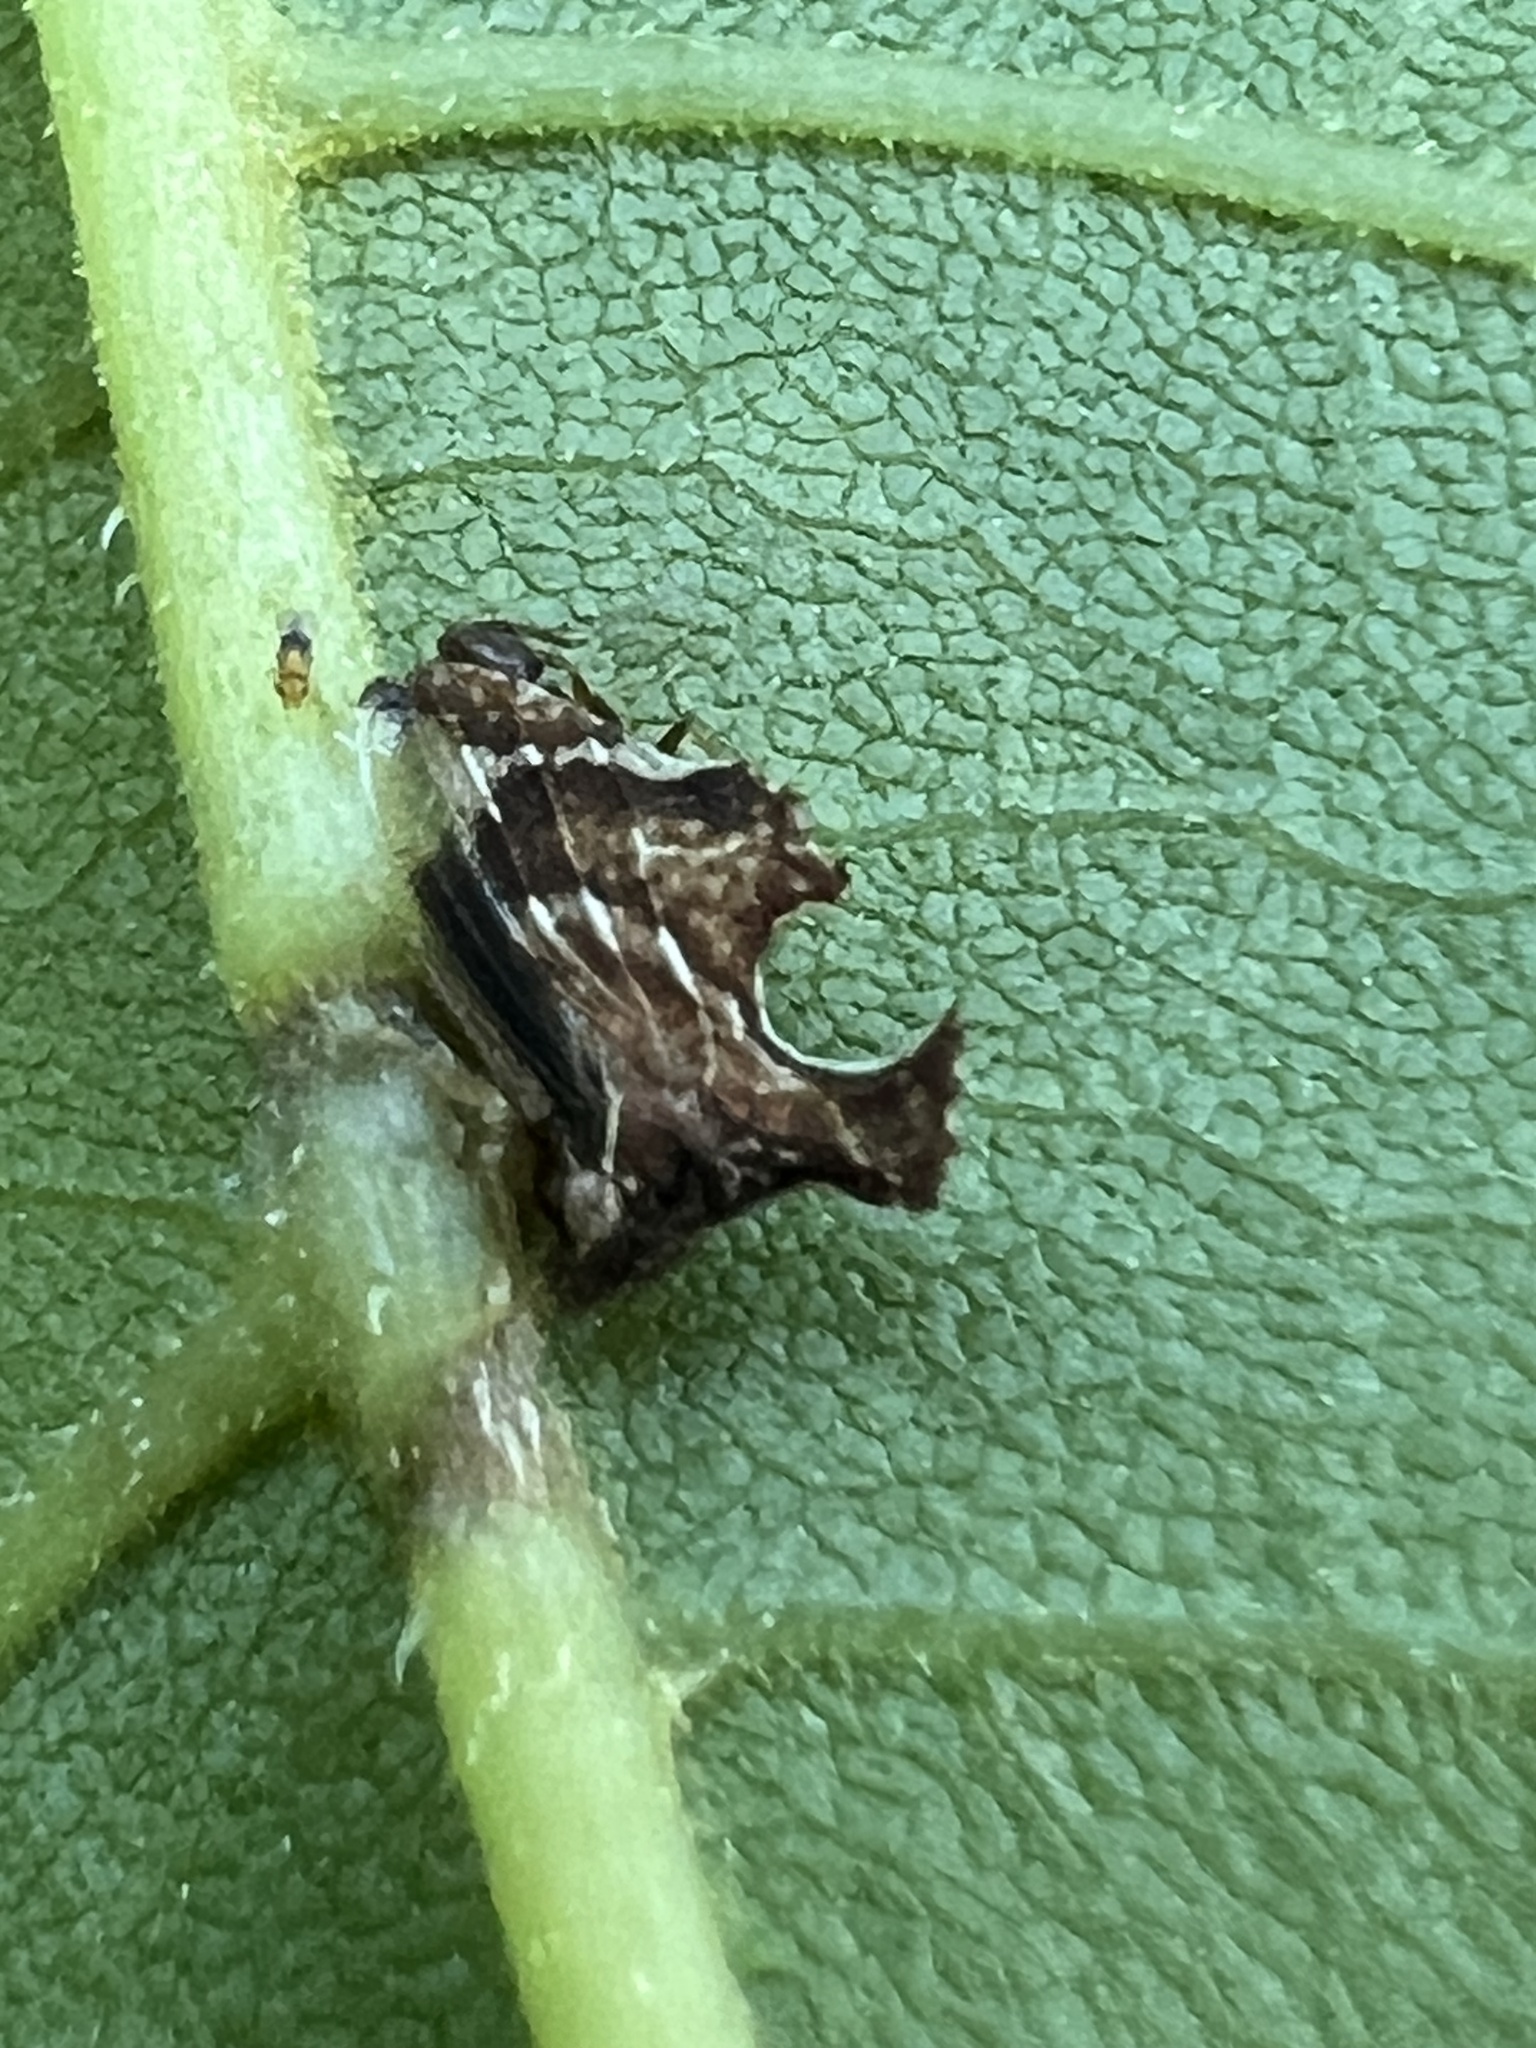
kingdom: Animalia
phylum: Arthropoda
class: Insecta
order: Hemiptera
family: Membracidae
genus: Entylia
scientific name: Entylia carinata
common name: Keeled treehopper
